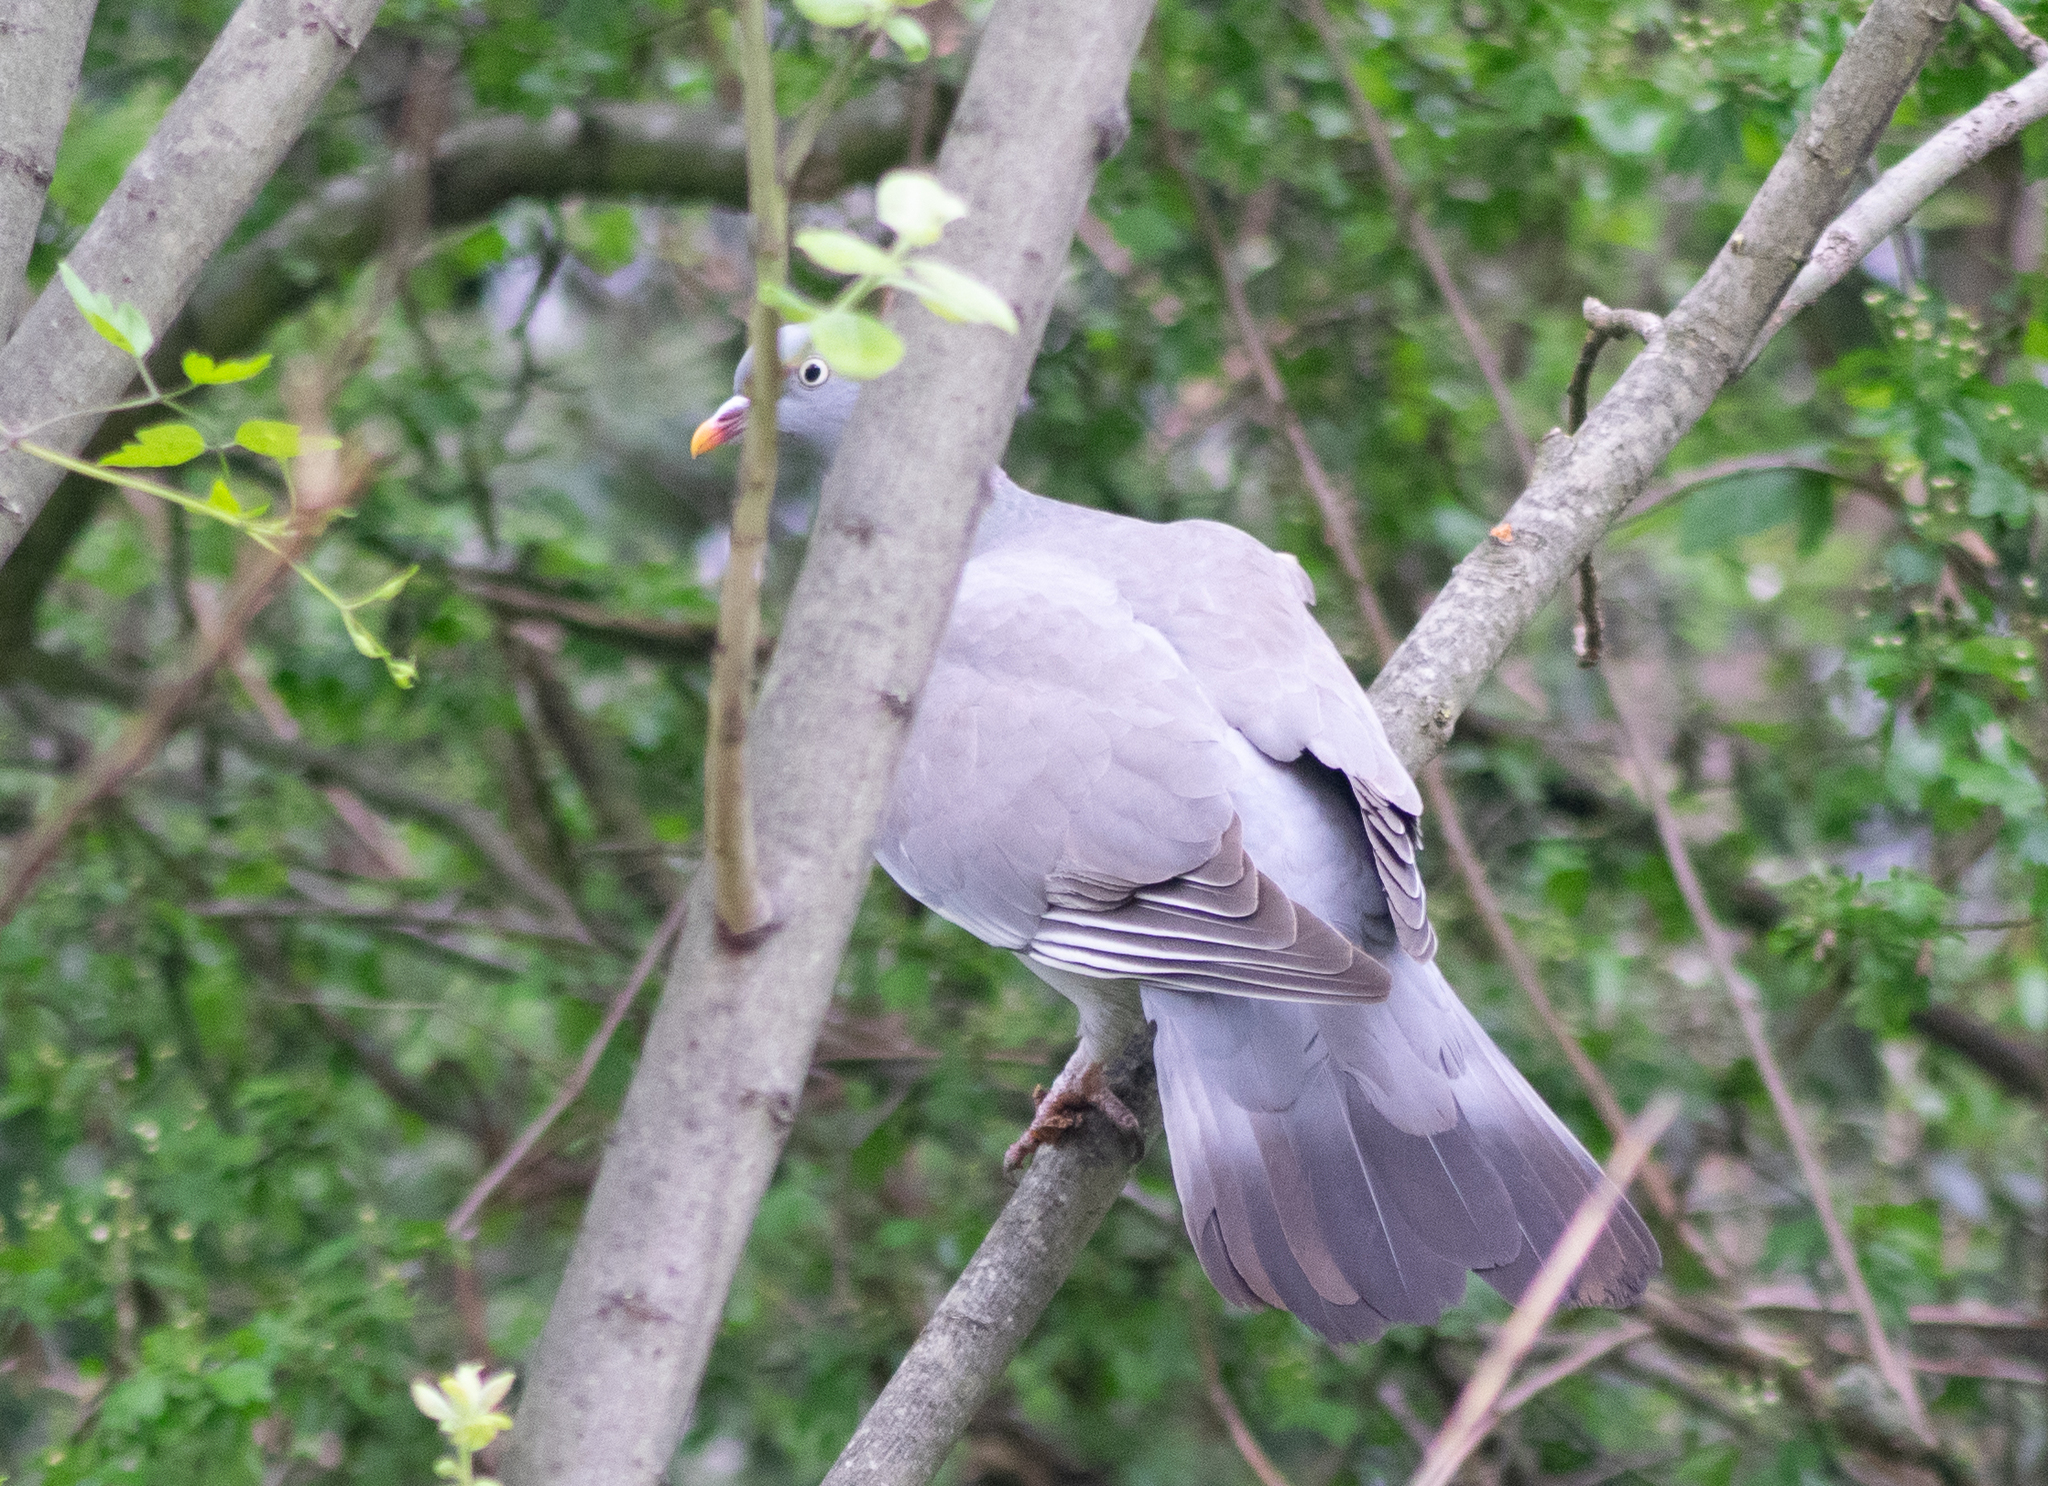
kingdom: Animalia
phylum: Chordata
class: Aves
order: Columbiformes
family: Columbidae
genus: Columba
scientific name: Columba palumbus
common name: Common wood pigeon
